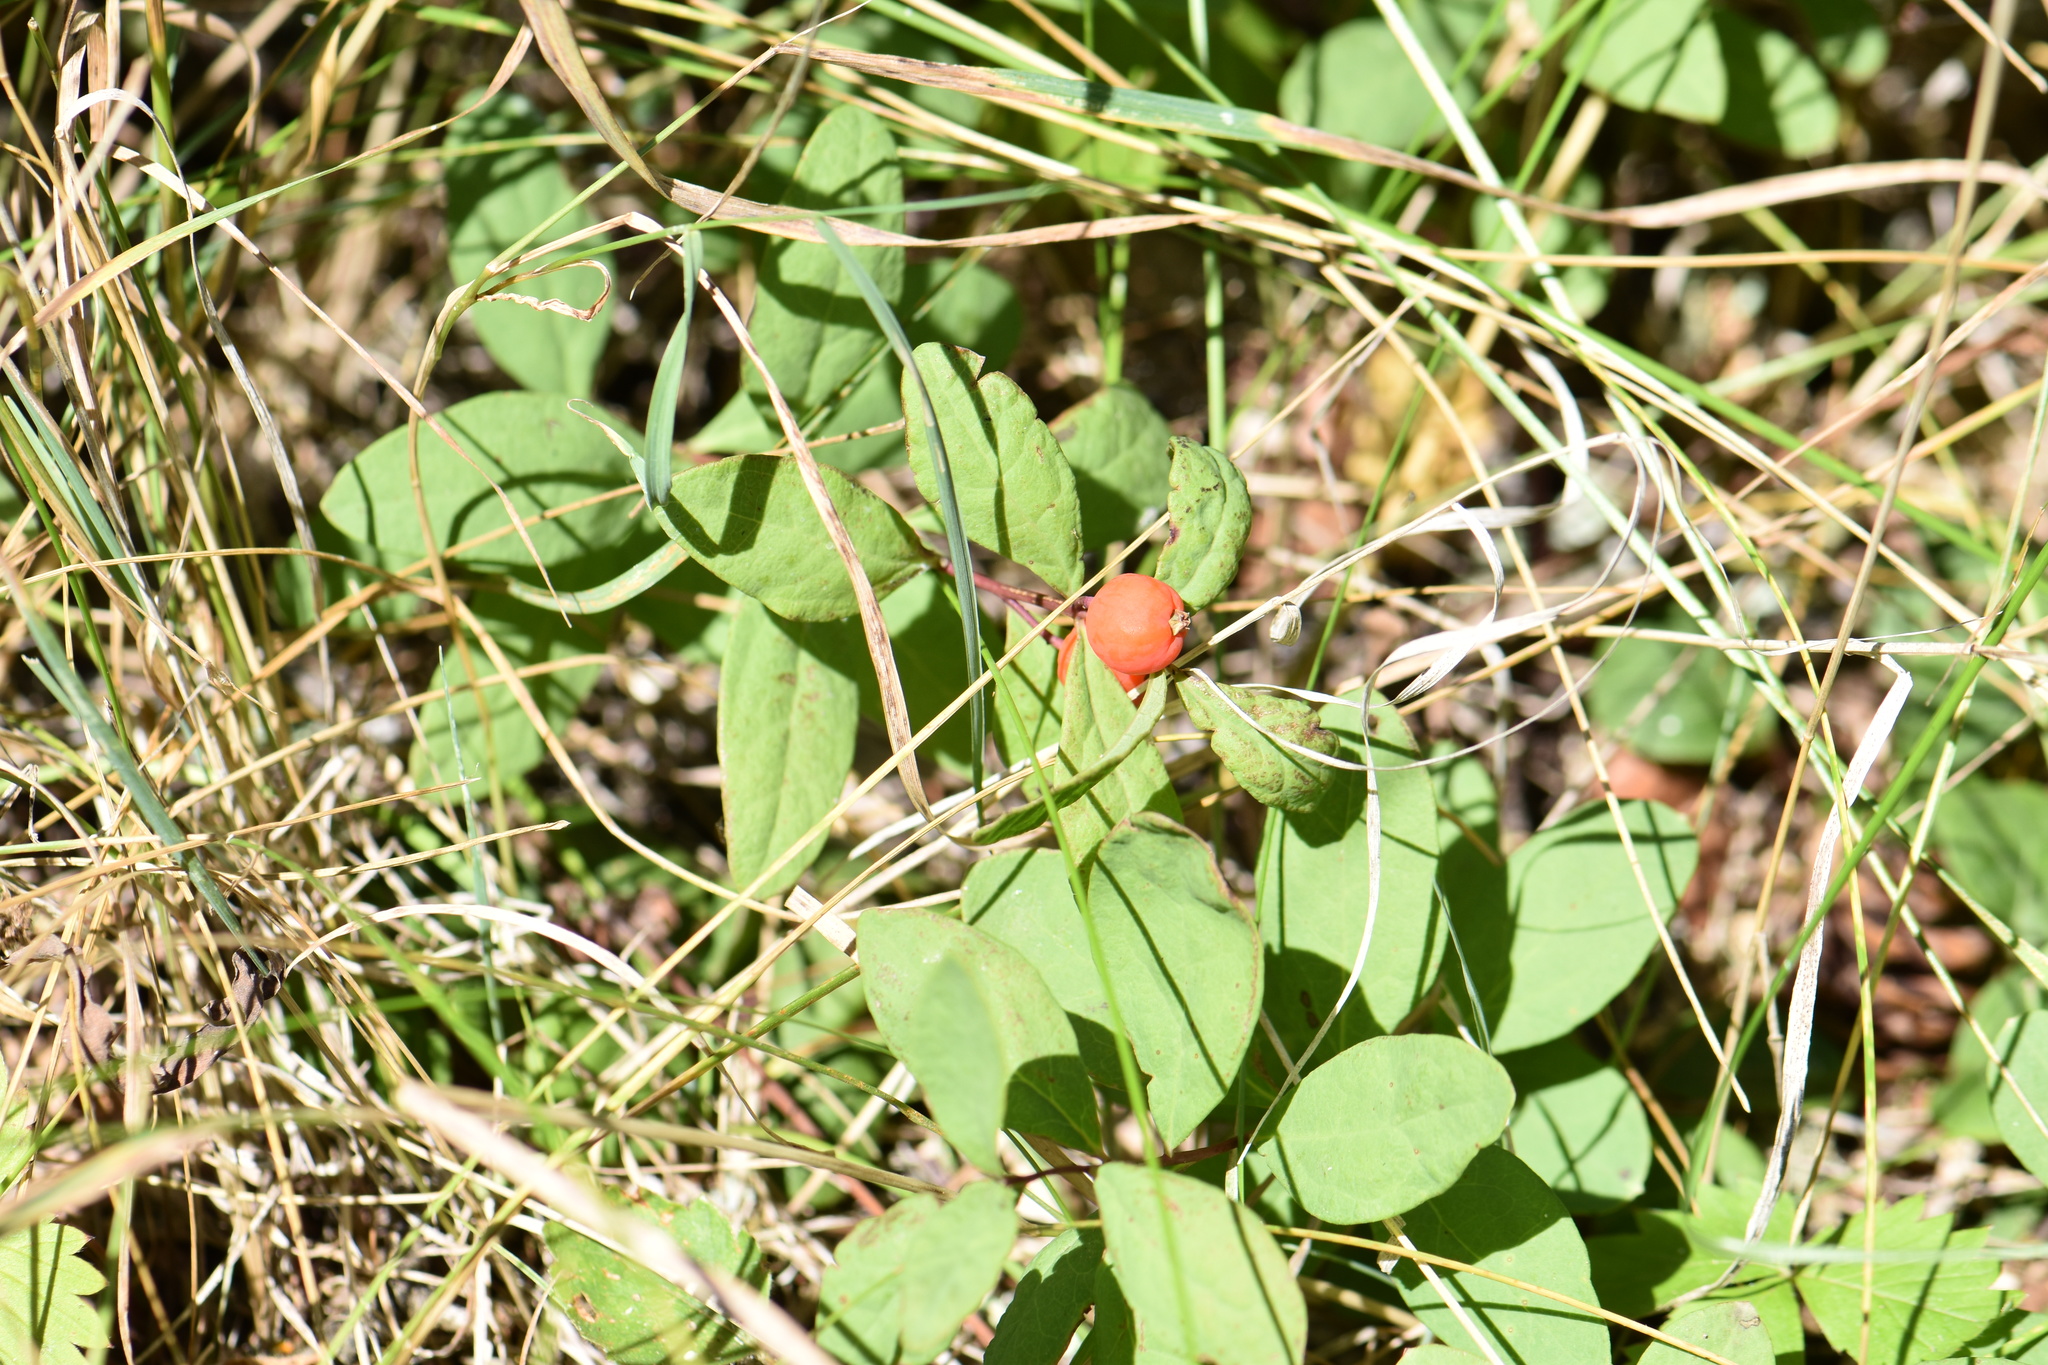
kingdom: Plantae
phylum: Tracheophyta
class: Magnoliopsida
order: Santalales
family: Comandraceae
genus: Geocaulon
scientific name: Geocaulon lividum
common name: Earthberry
